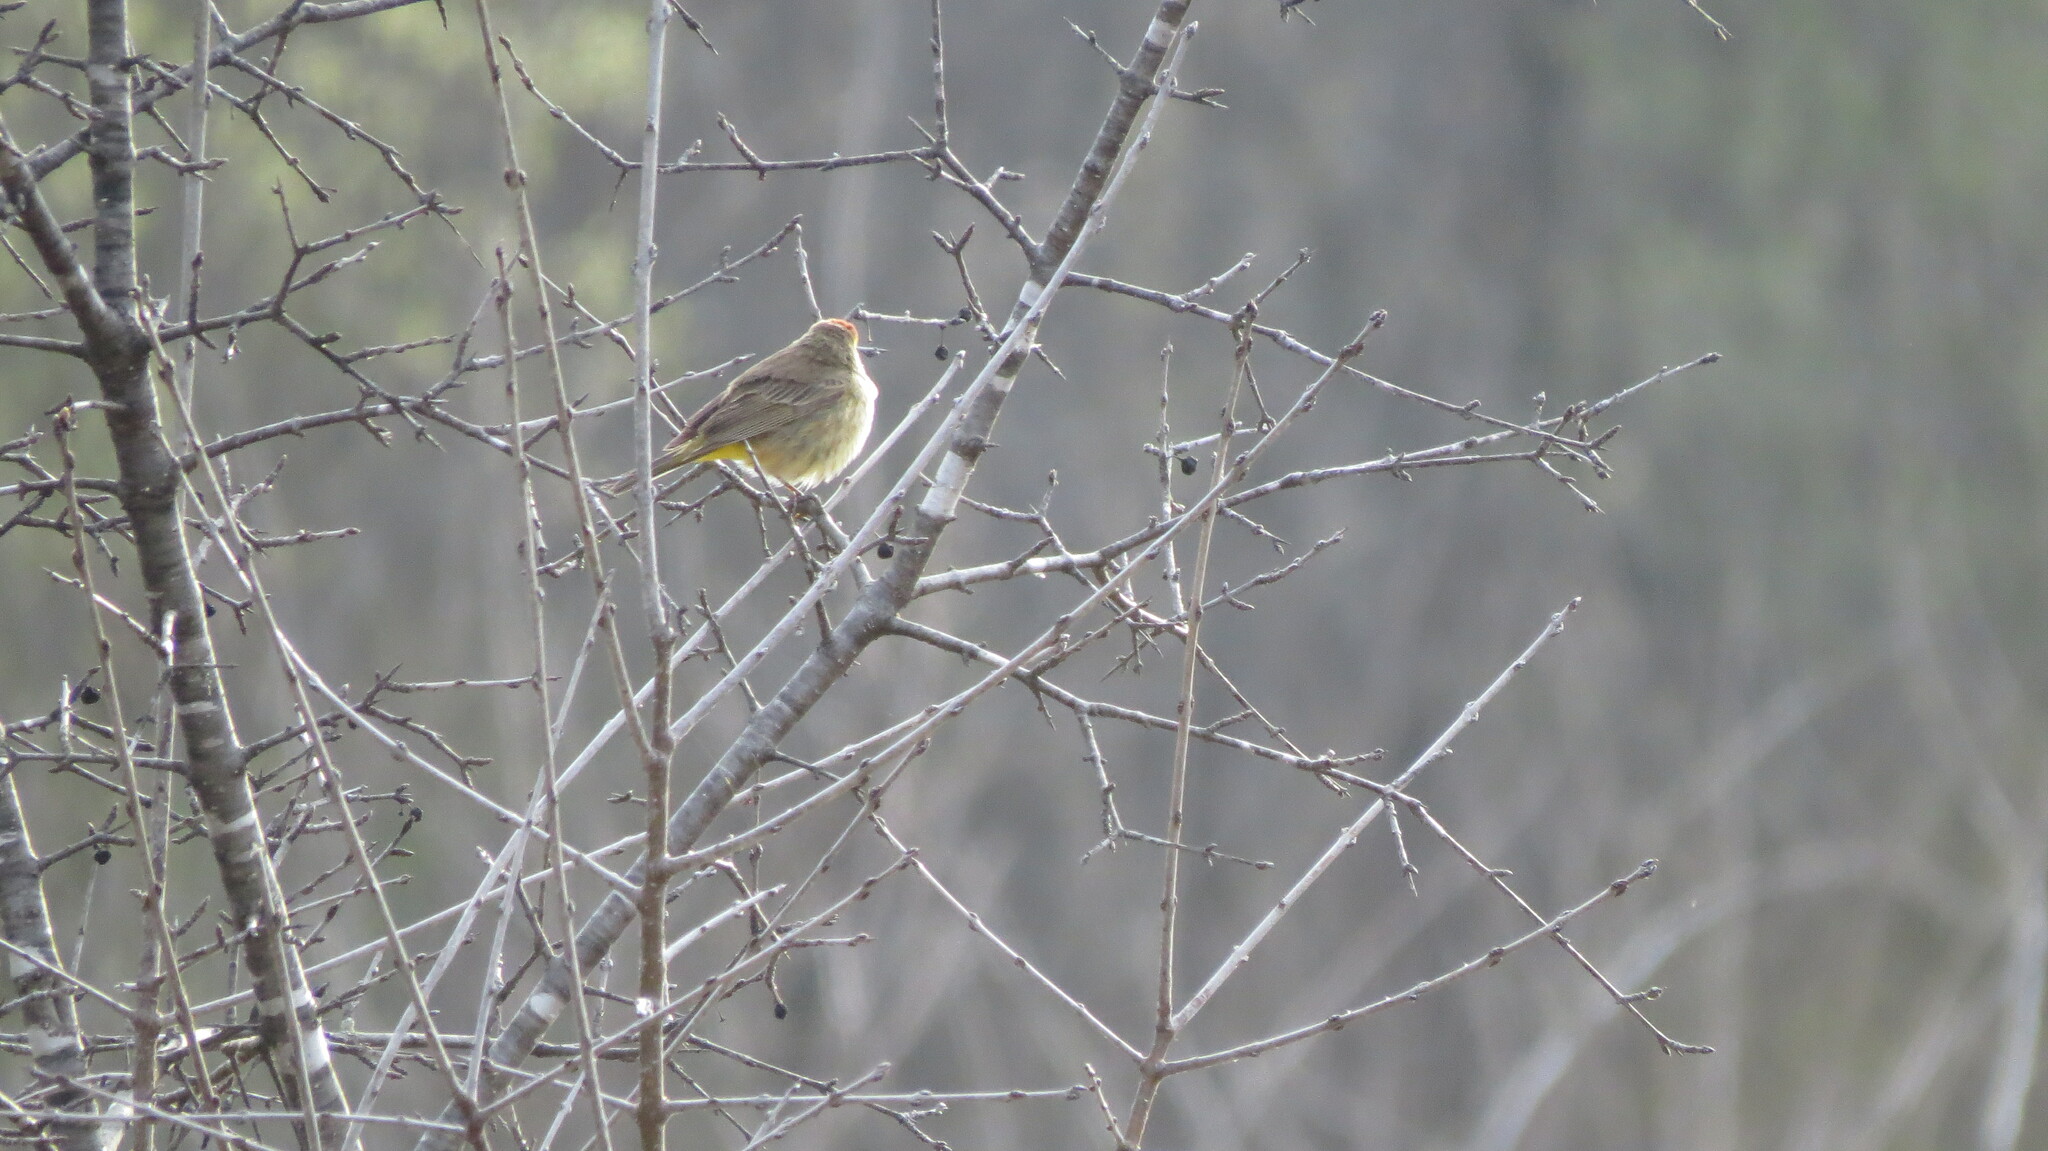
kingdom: Animalia
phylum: Chordata
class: Aves
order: Passeriformes
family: Parulidae
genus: Setophaga
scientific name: Setophaga palmarum
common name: Palm warbler
